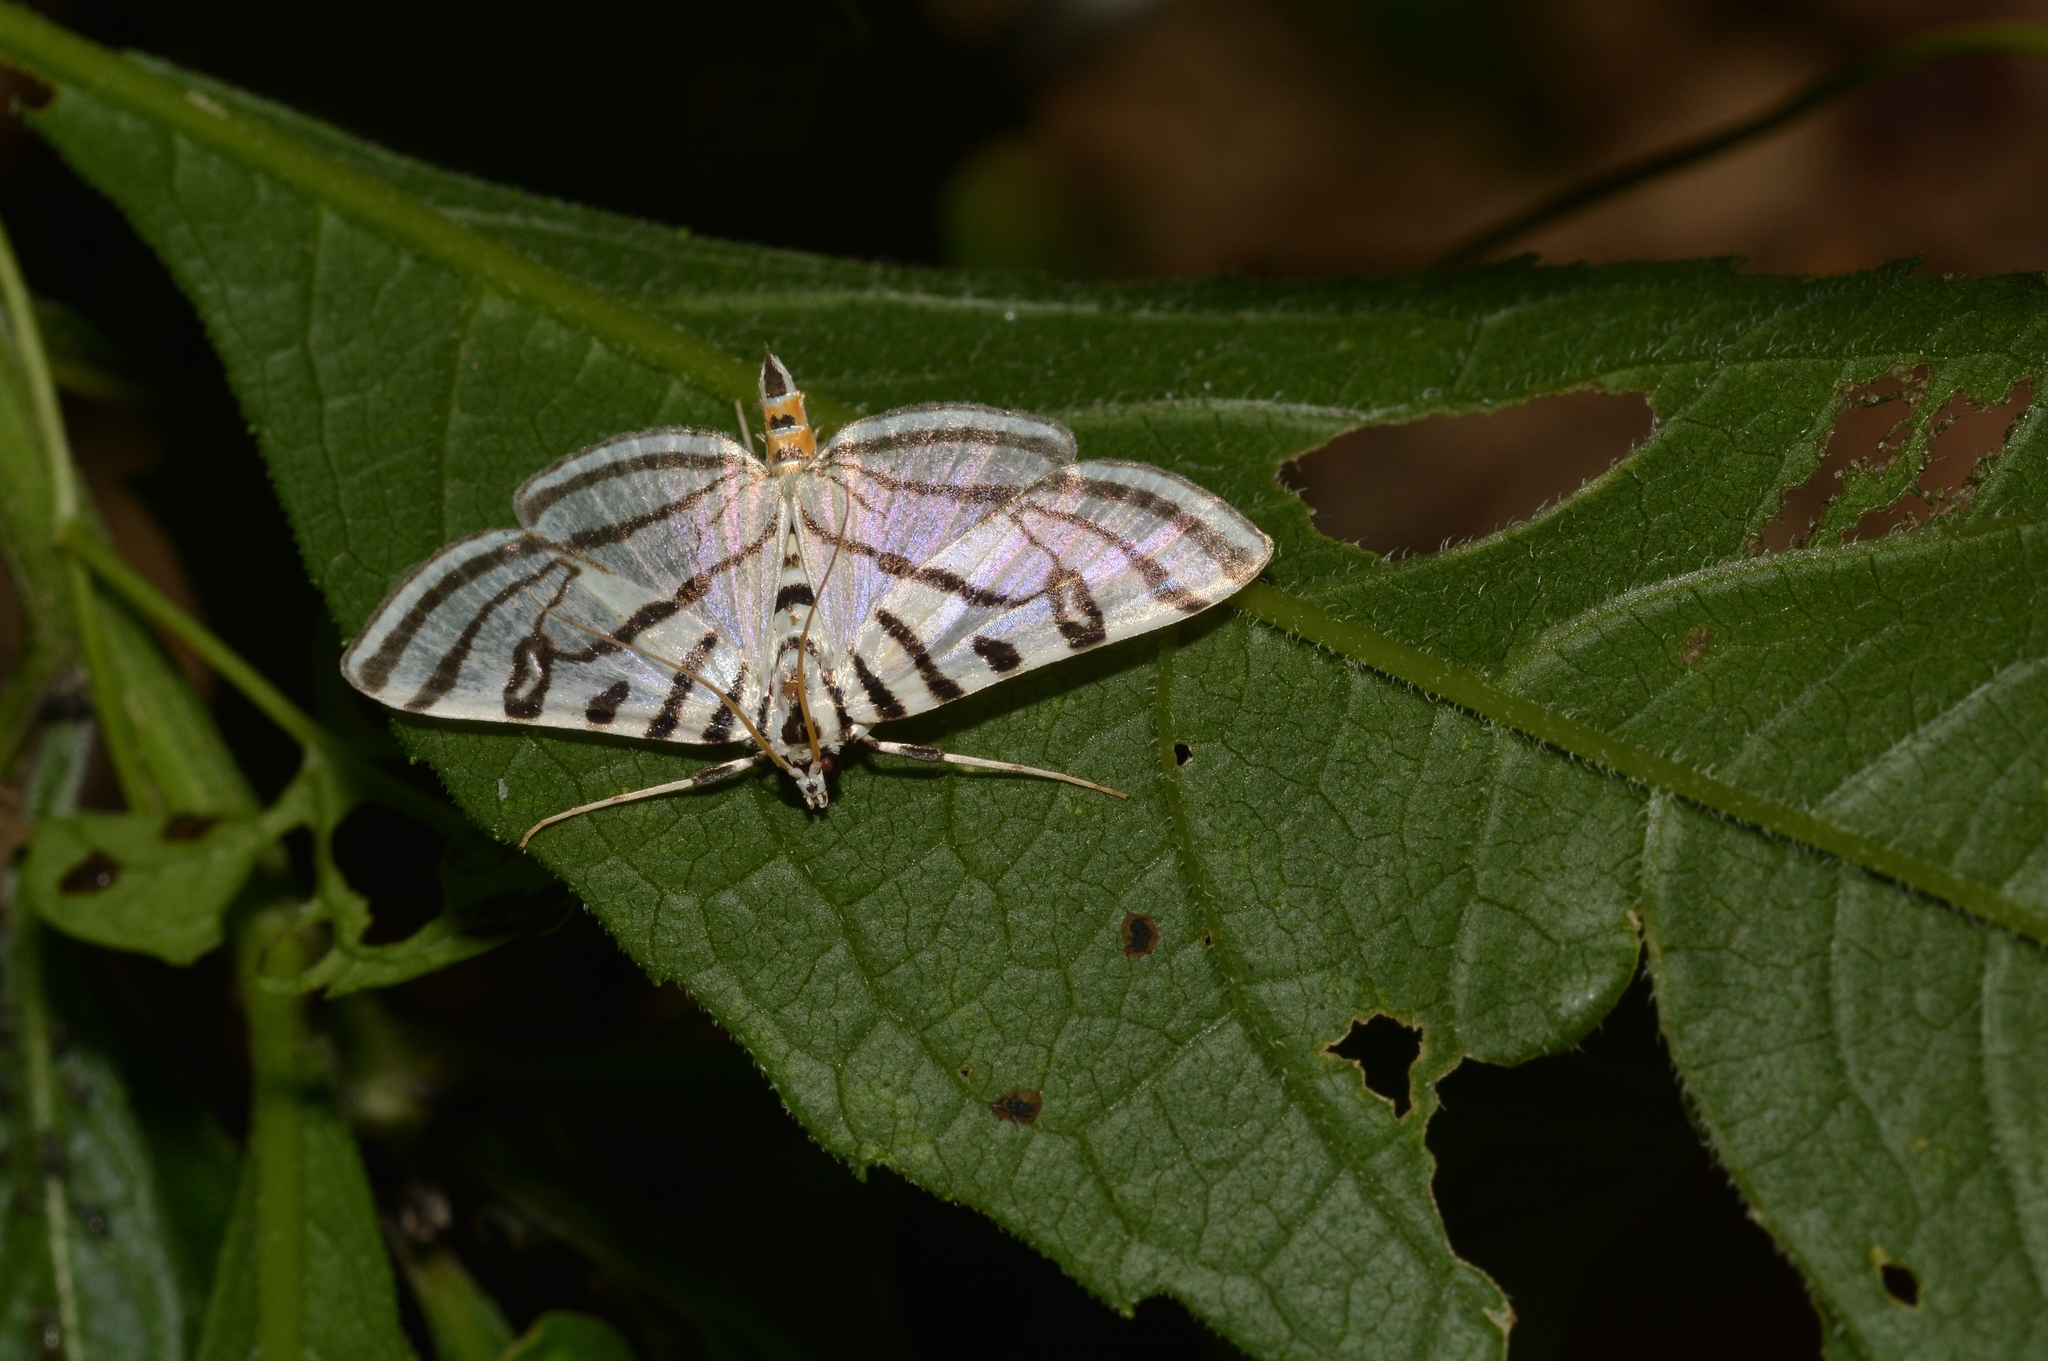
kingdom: Animalia
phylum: Arthropoda
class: Insecta
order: Lepidoptera
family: Crambidae
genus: Conchylodes
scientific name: Conchylodes ovulalis
